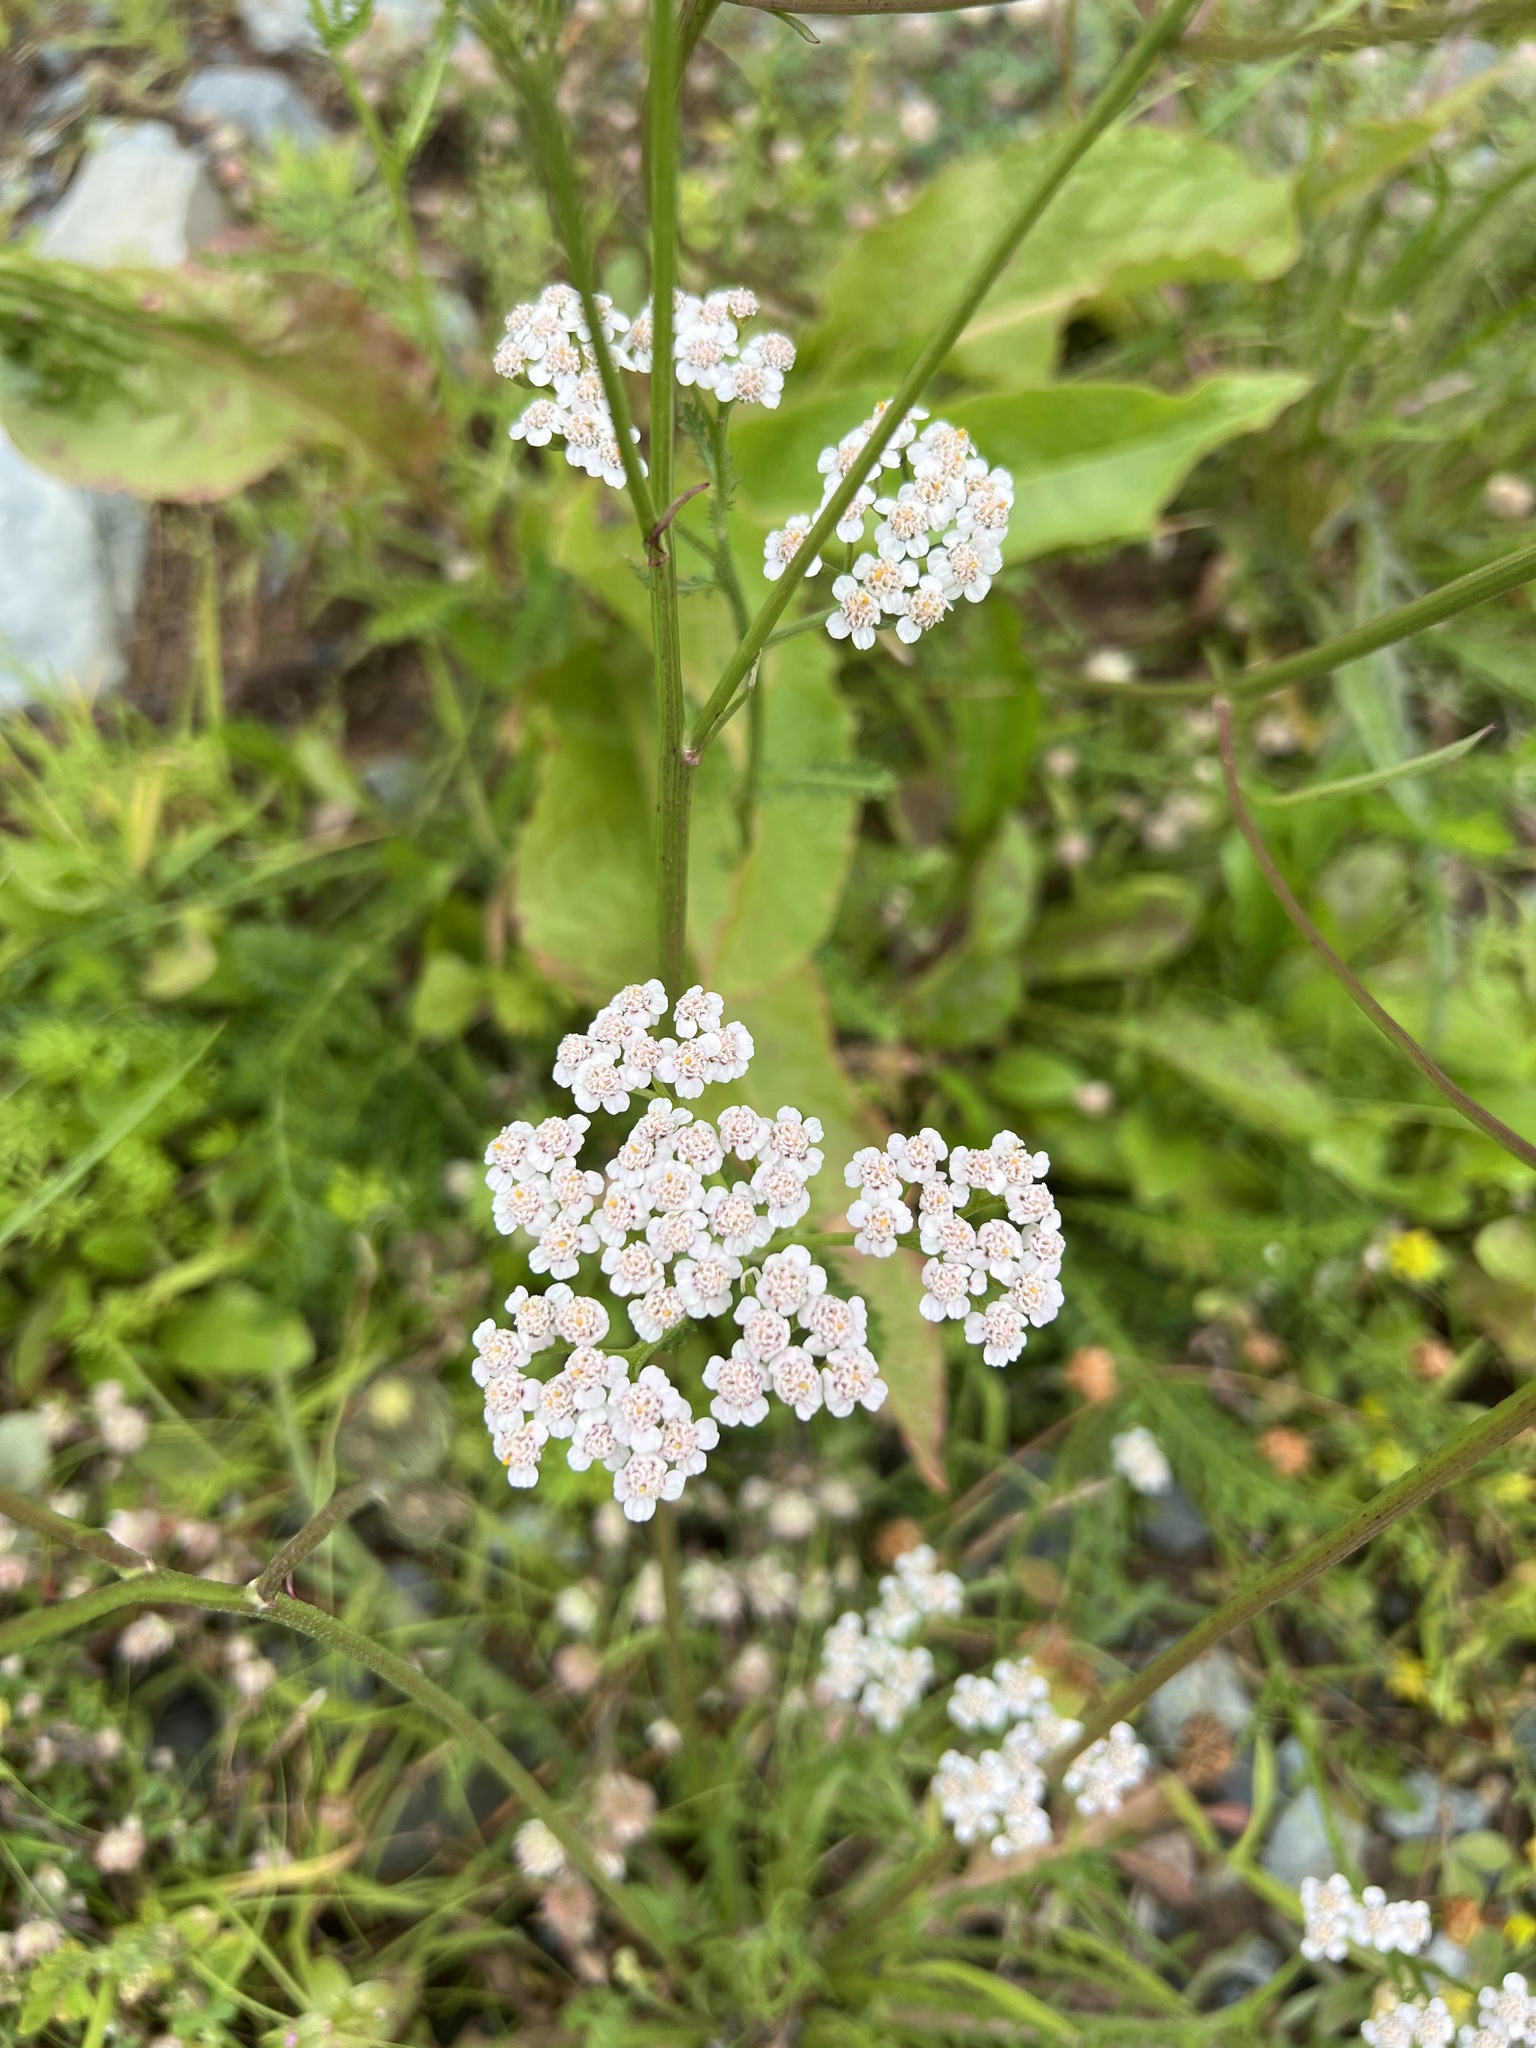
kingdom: Plantae
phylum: Tracheophyta
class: Magnoliopsida
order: Asterales
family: Asteraceae
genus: Achillea
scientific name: Achillea millefolium
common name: Yarrow
